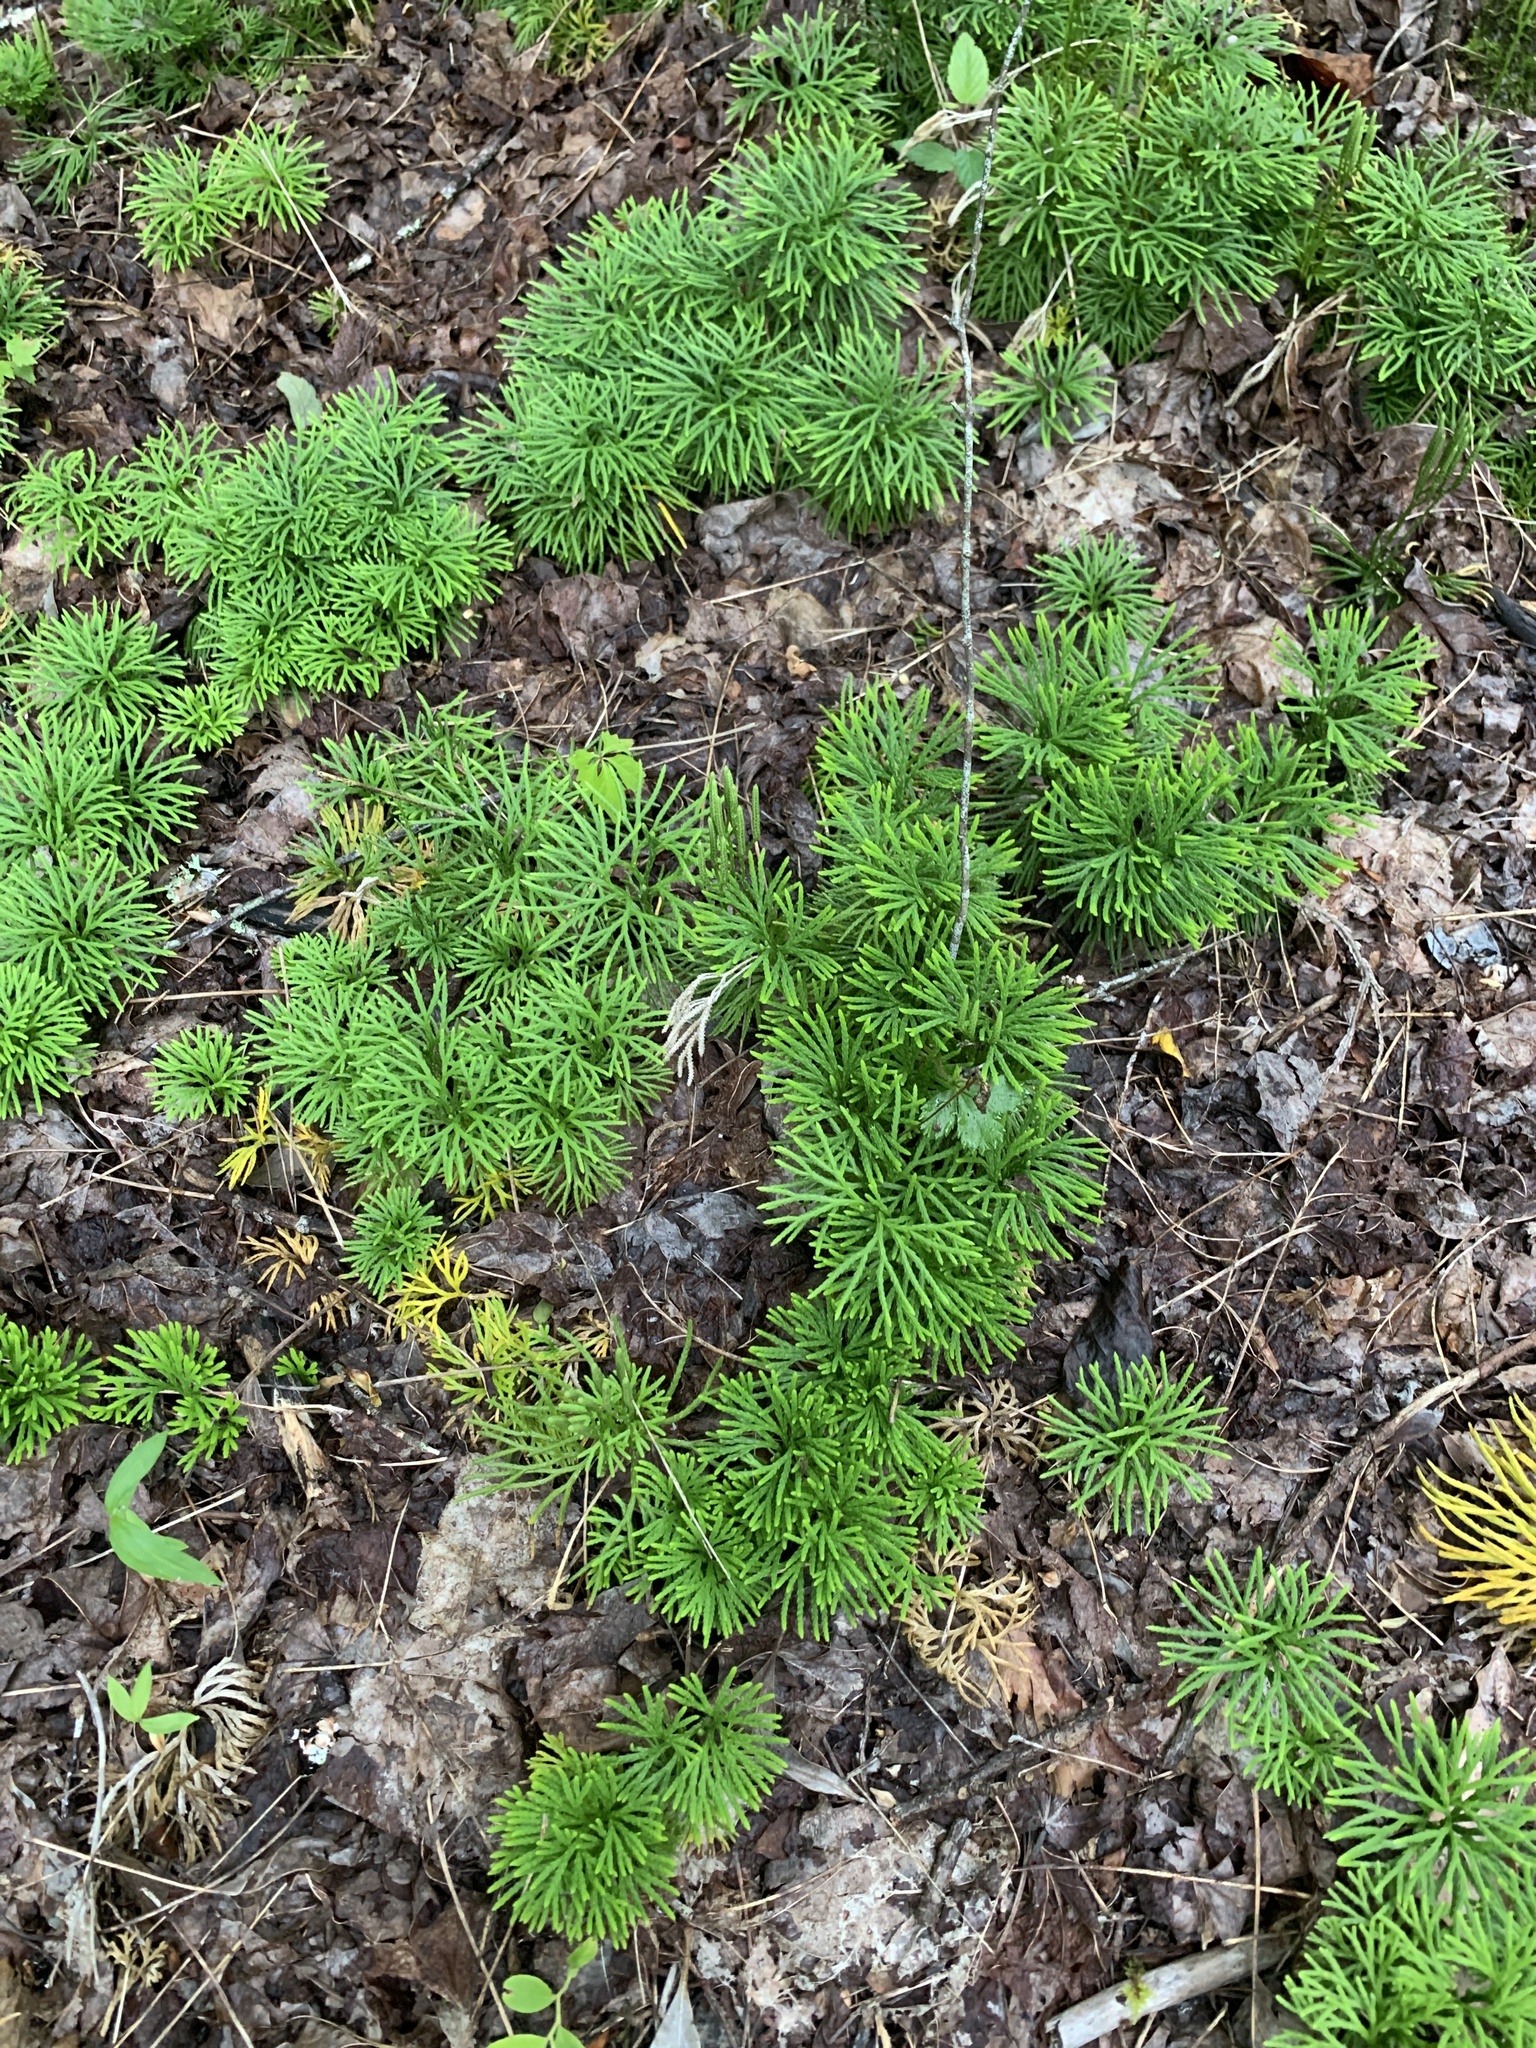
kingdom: Plantae
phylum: Tracheophyta
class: Lycopodiopsida
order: Lycopodiales
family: Lycopodiaceae
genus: Diphasiastrum
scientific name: Diphasiastrum digitatum
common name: Southern running-pine
